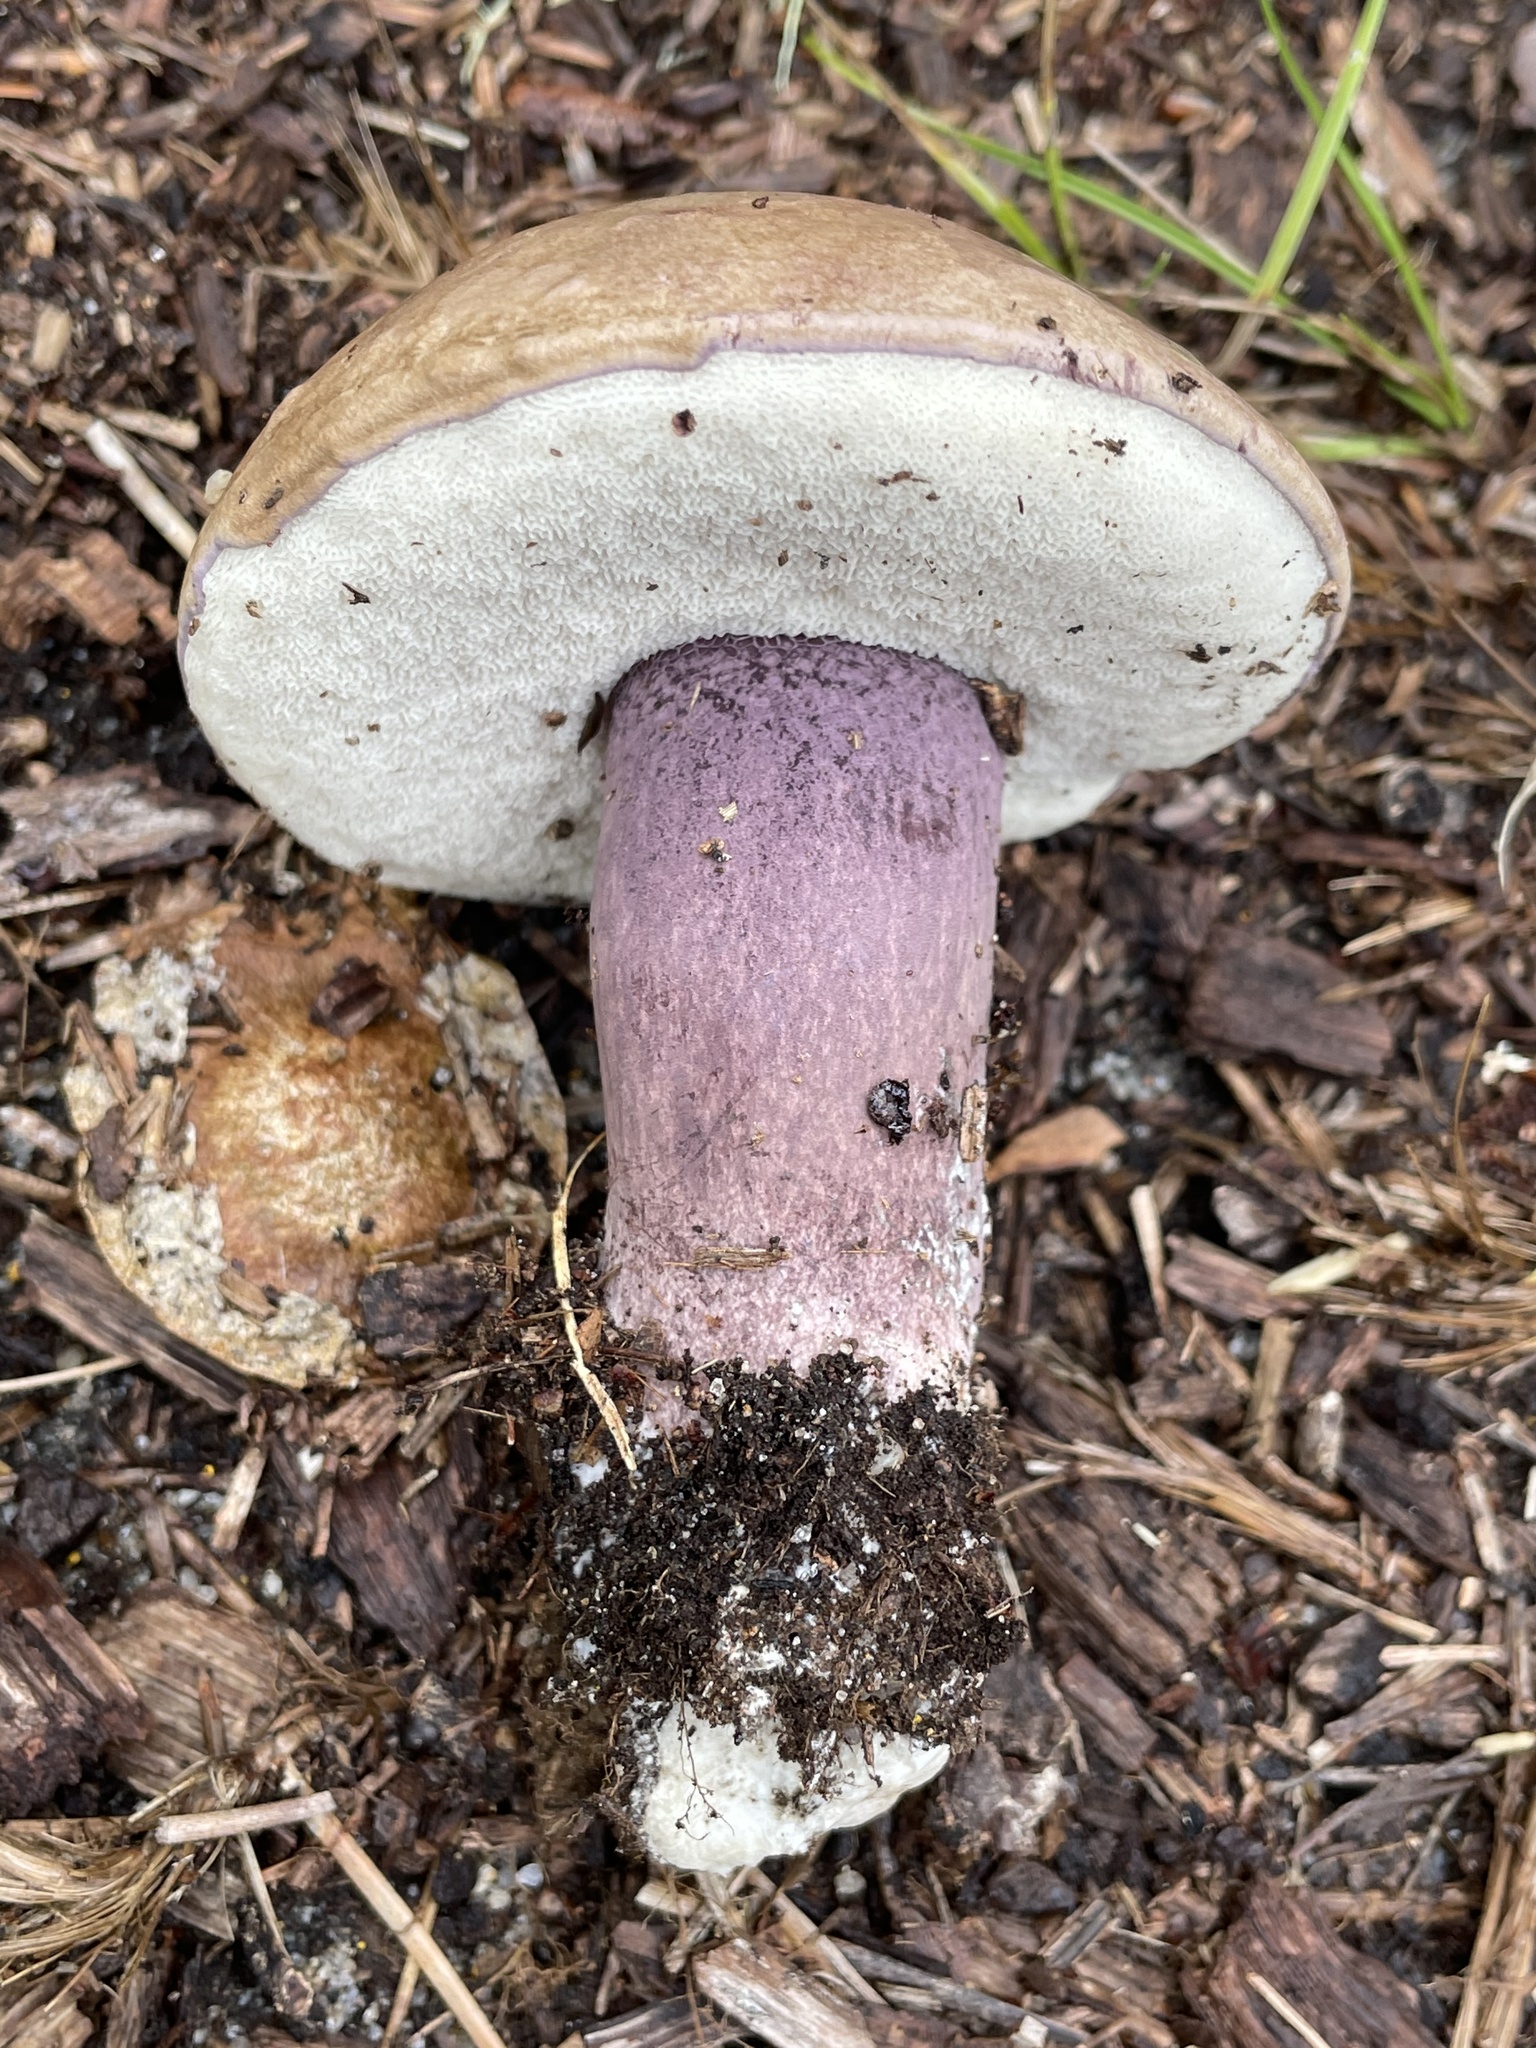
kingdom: Fungi
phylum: Basidiomycota
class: Agaricomycetes
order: Boletales
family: Boletaceae
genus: Tylopilus
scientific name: Tylopilus plumbeoviolaceus
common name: Violet gray bolete
